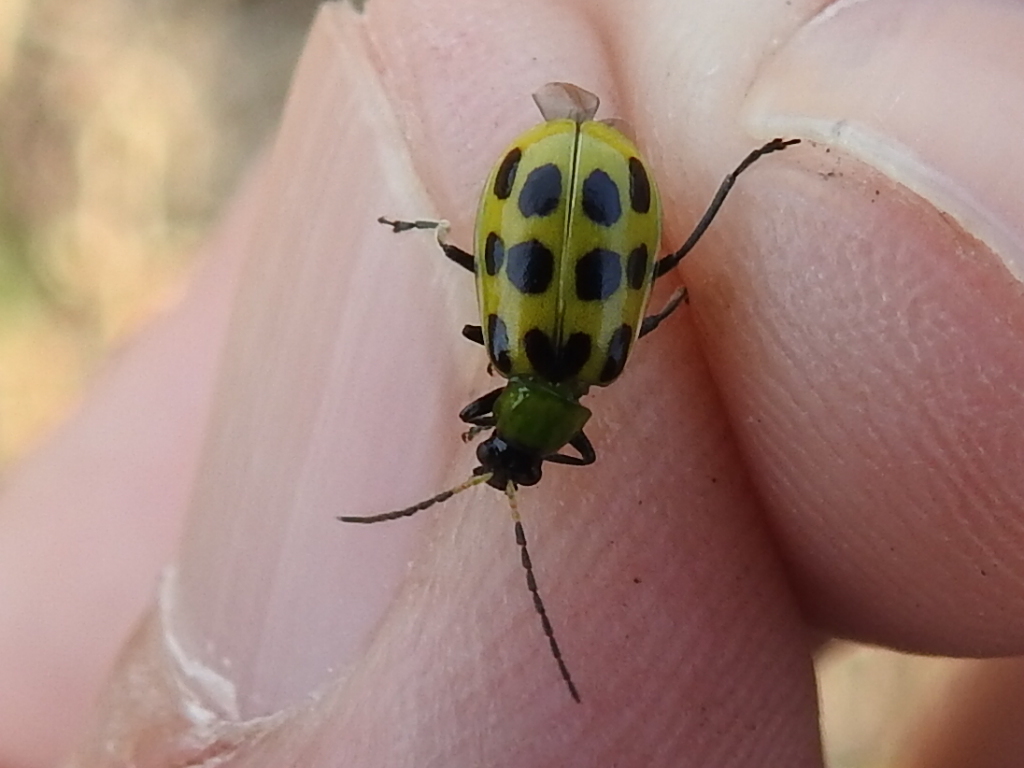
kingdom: Animalia
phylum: Arthropoda
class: Insecta
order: Coleoptera
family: Chrysomelidae
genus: Diabrotica
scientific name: Diabrotica undecimpunctata
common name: Spotted cucumber beetle
